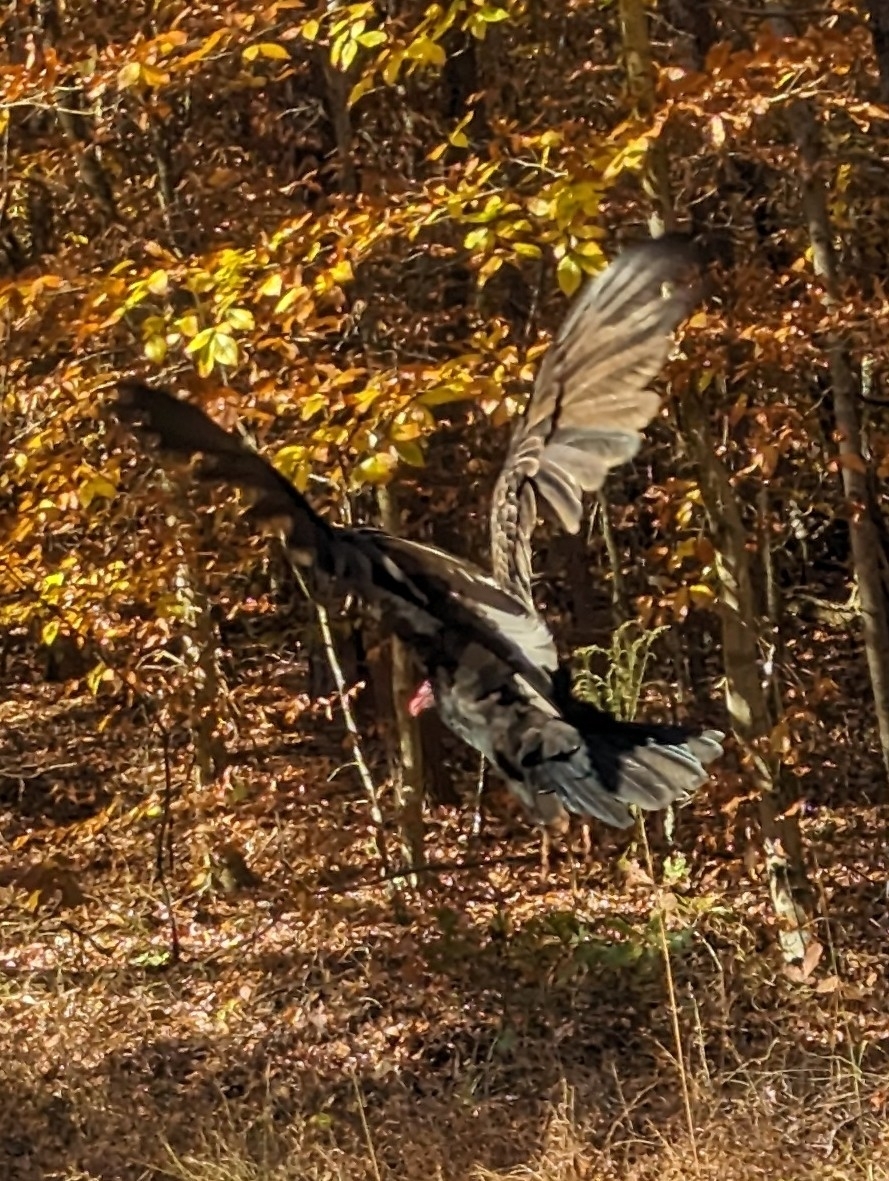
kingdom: Animalia
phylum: Chordata
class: Aves
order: Accipitriformes
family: Cathartidae
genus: Cathartes
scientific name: Cathartes aura
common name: Turkey vulture
